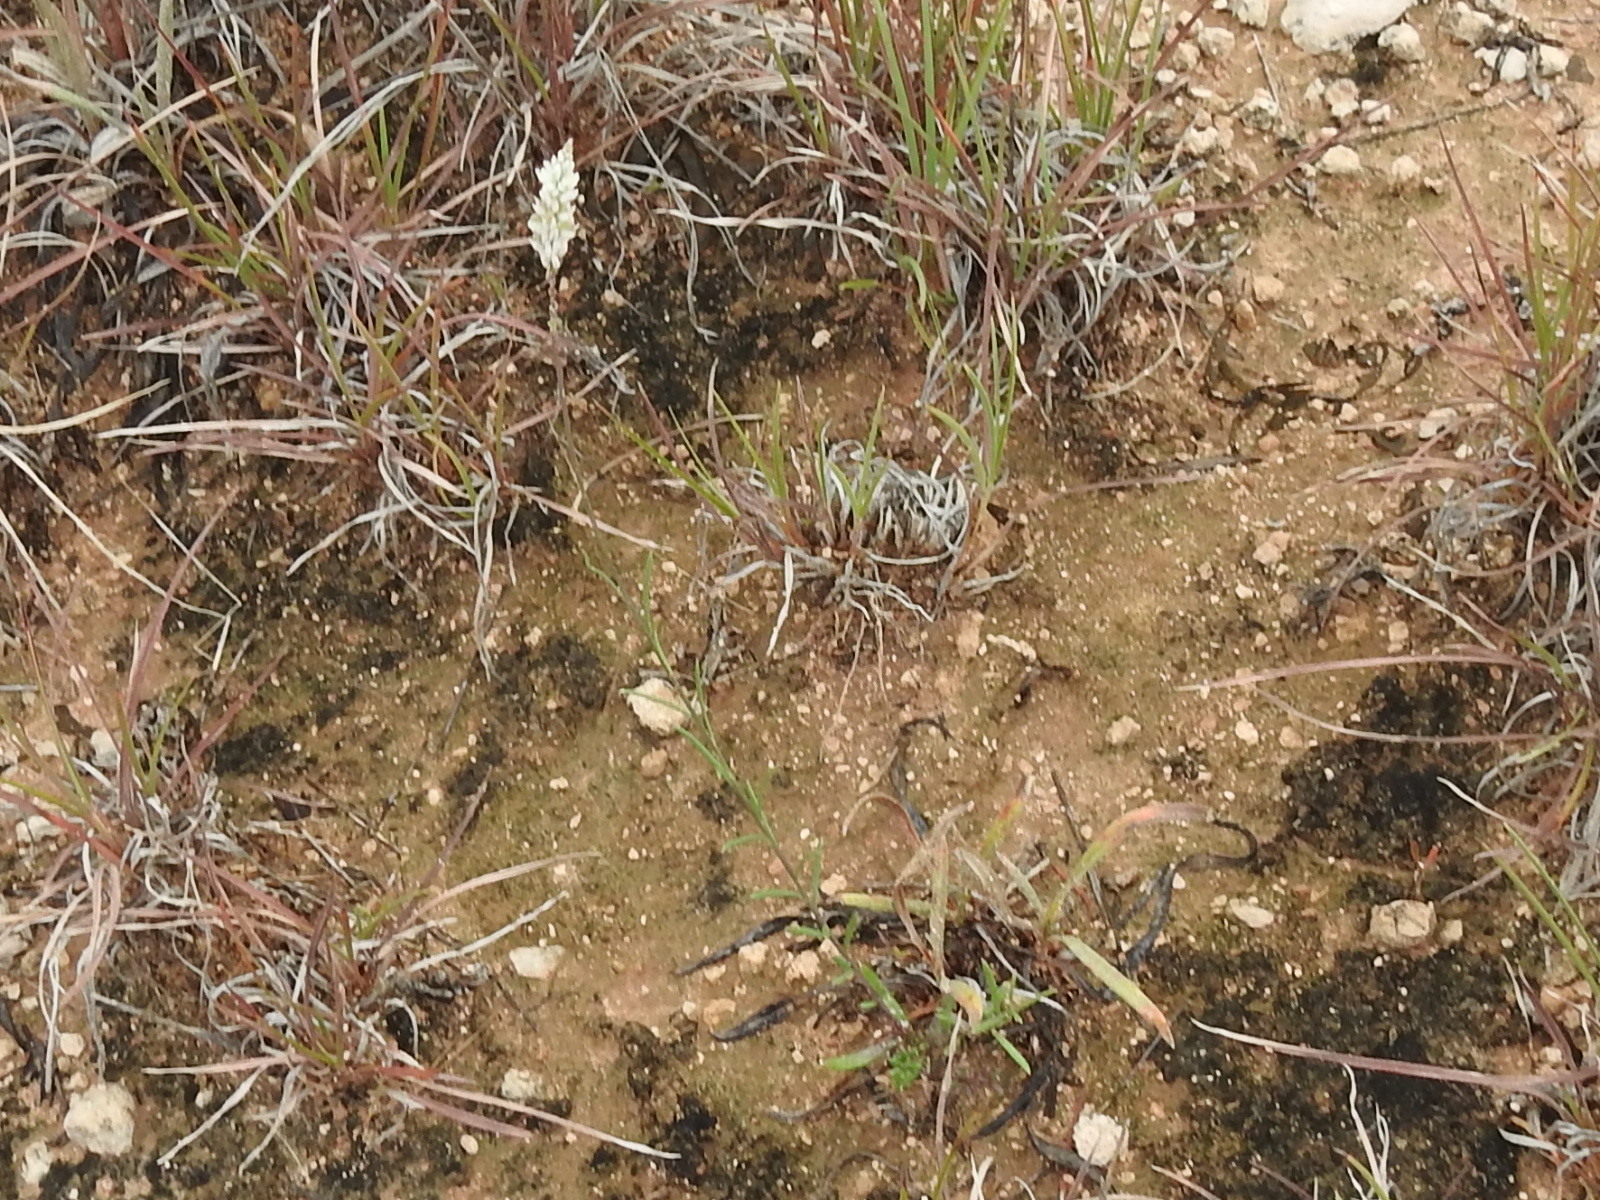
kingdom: Plantae
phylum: Tracheophyta
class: Magnoliopsida
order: Fabales
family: Polygalaceae
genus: Polygala
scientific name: Polygala alba
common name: White milkwort
